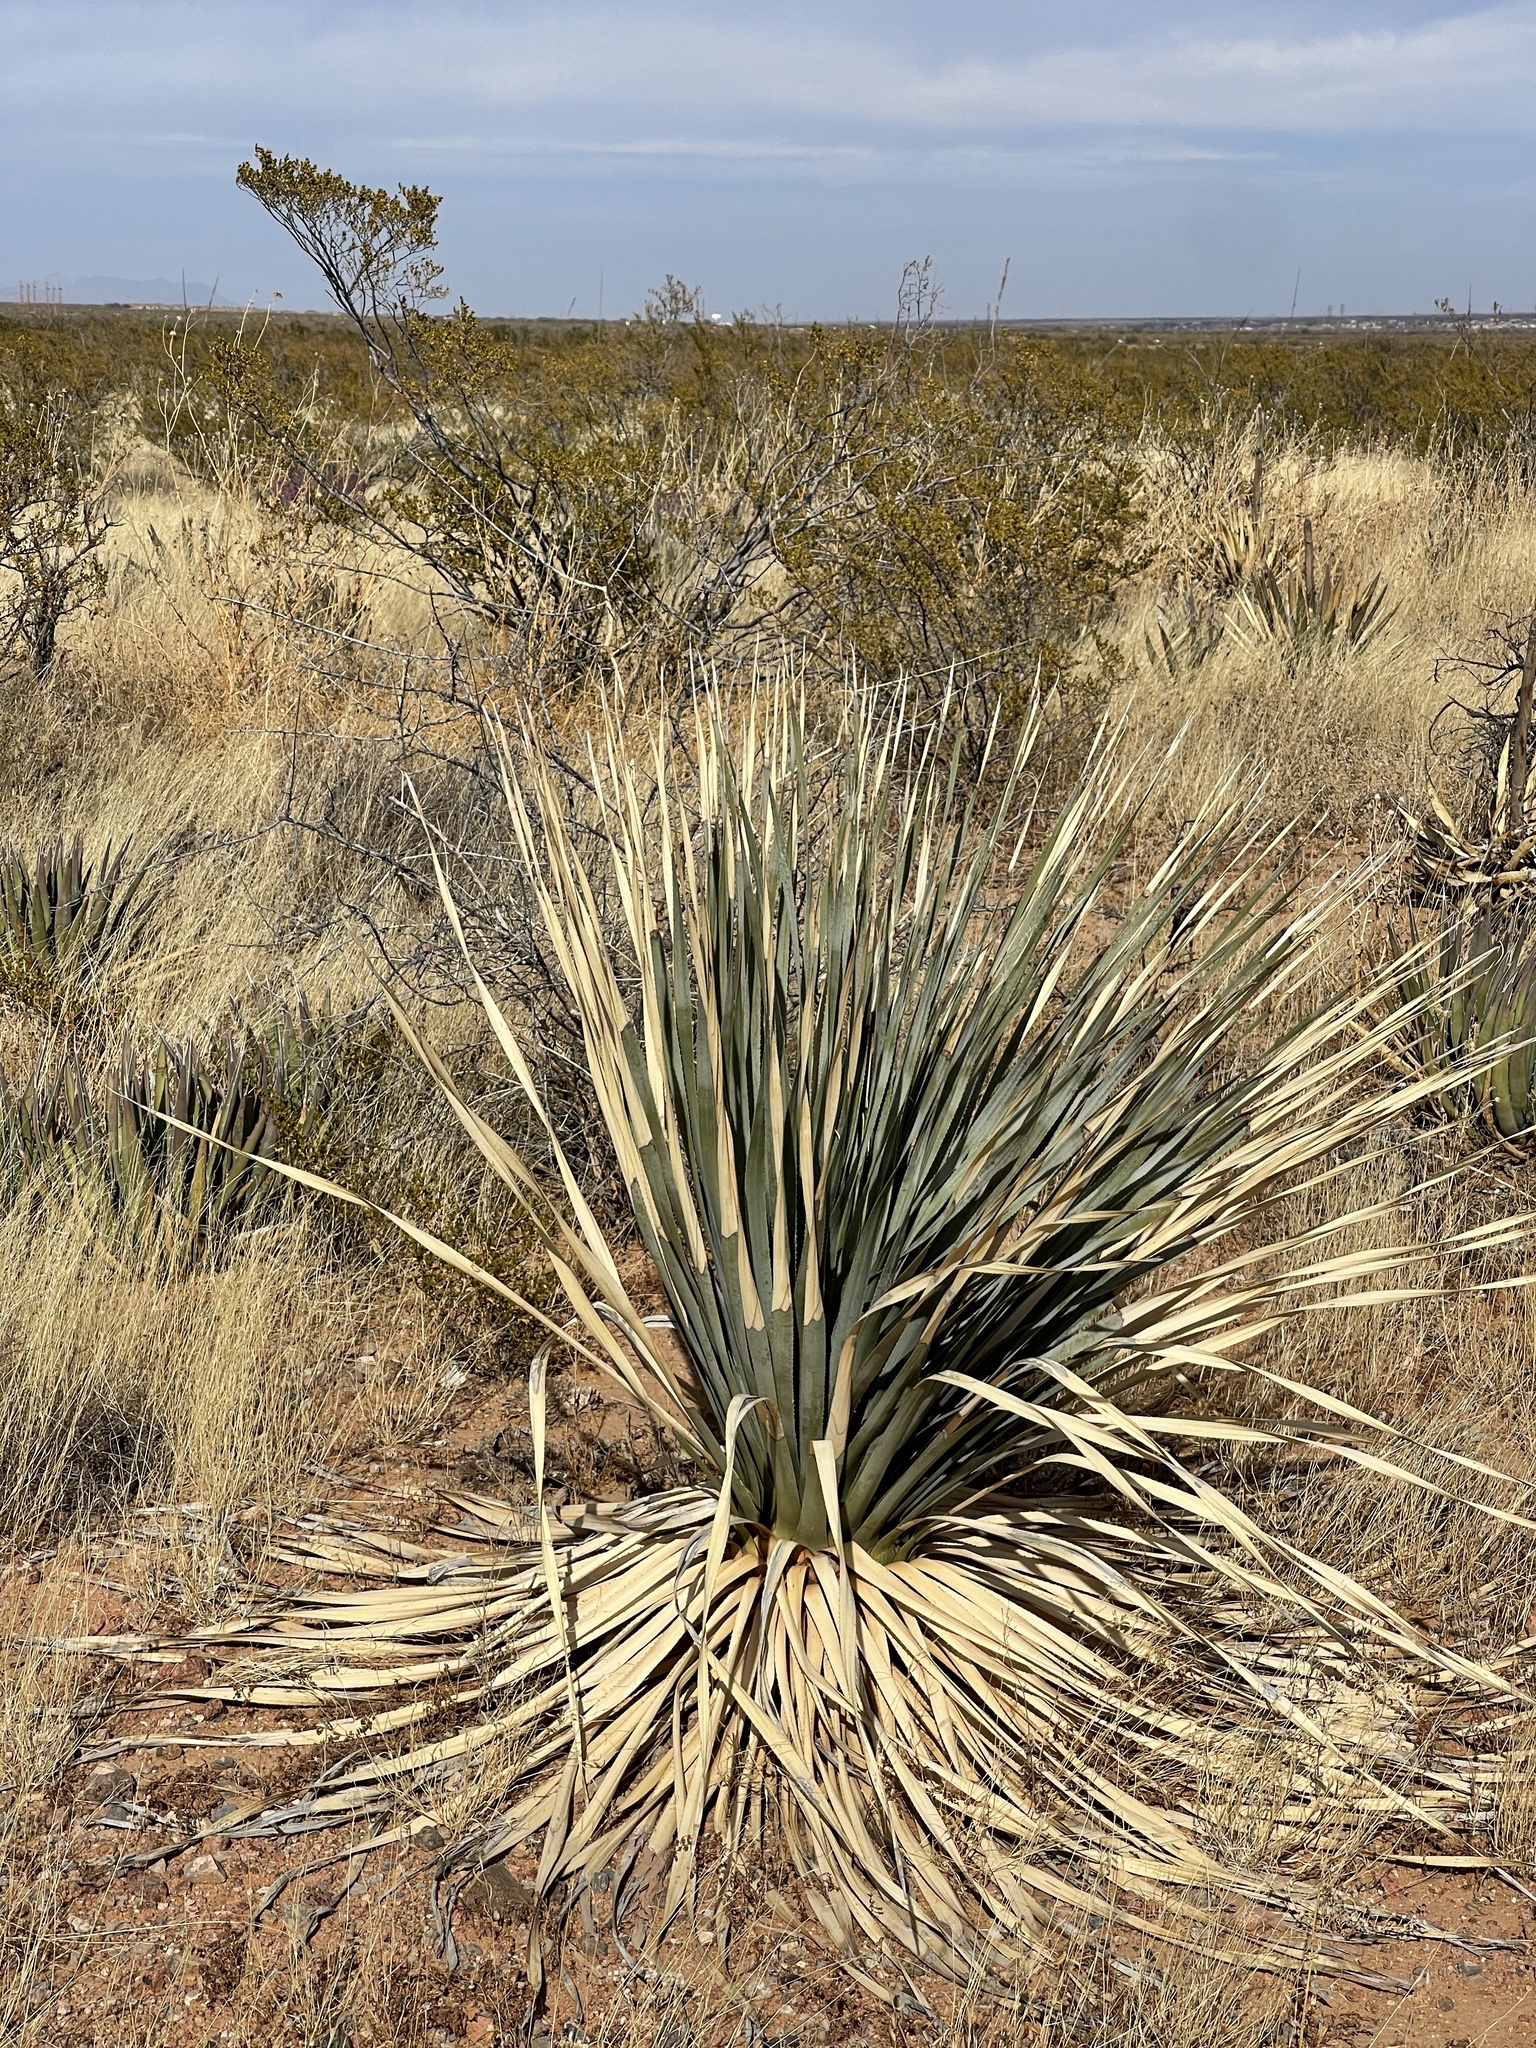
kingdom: Plantae
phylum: Tracheophyta
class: Liliopsida
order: Asparagales
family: Asparagaceae
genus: Dasylirion
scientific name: Dasylirion wheeleri
